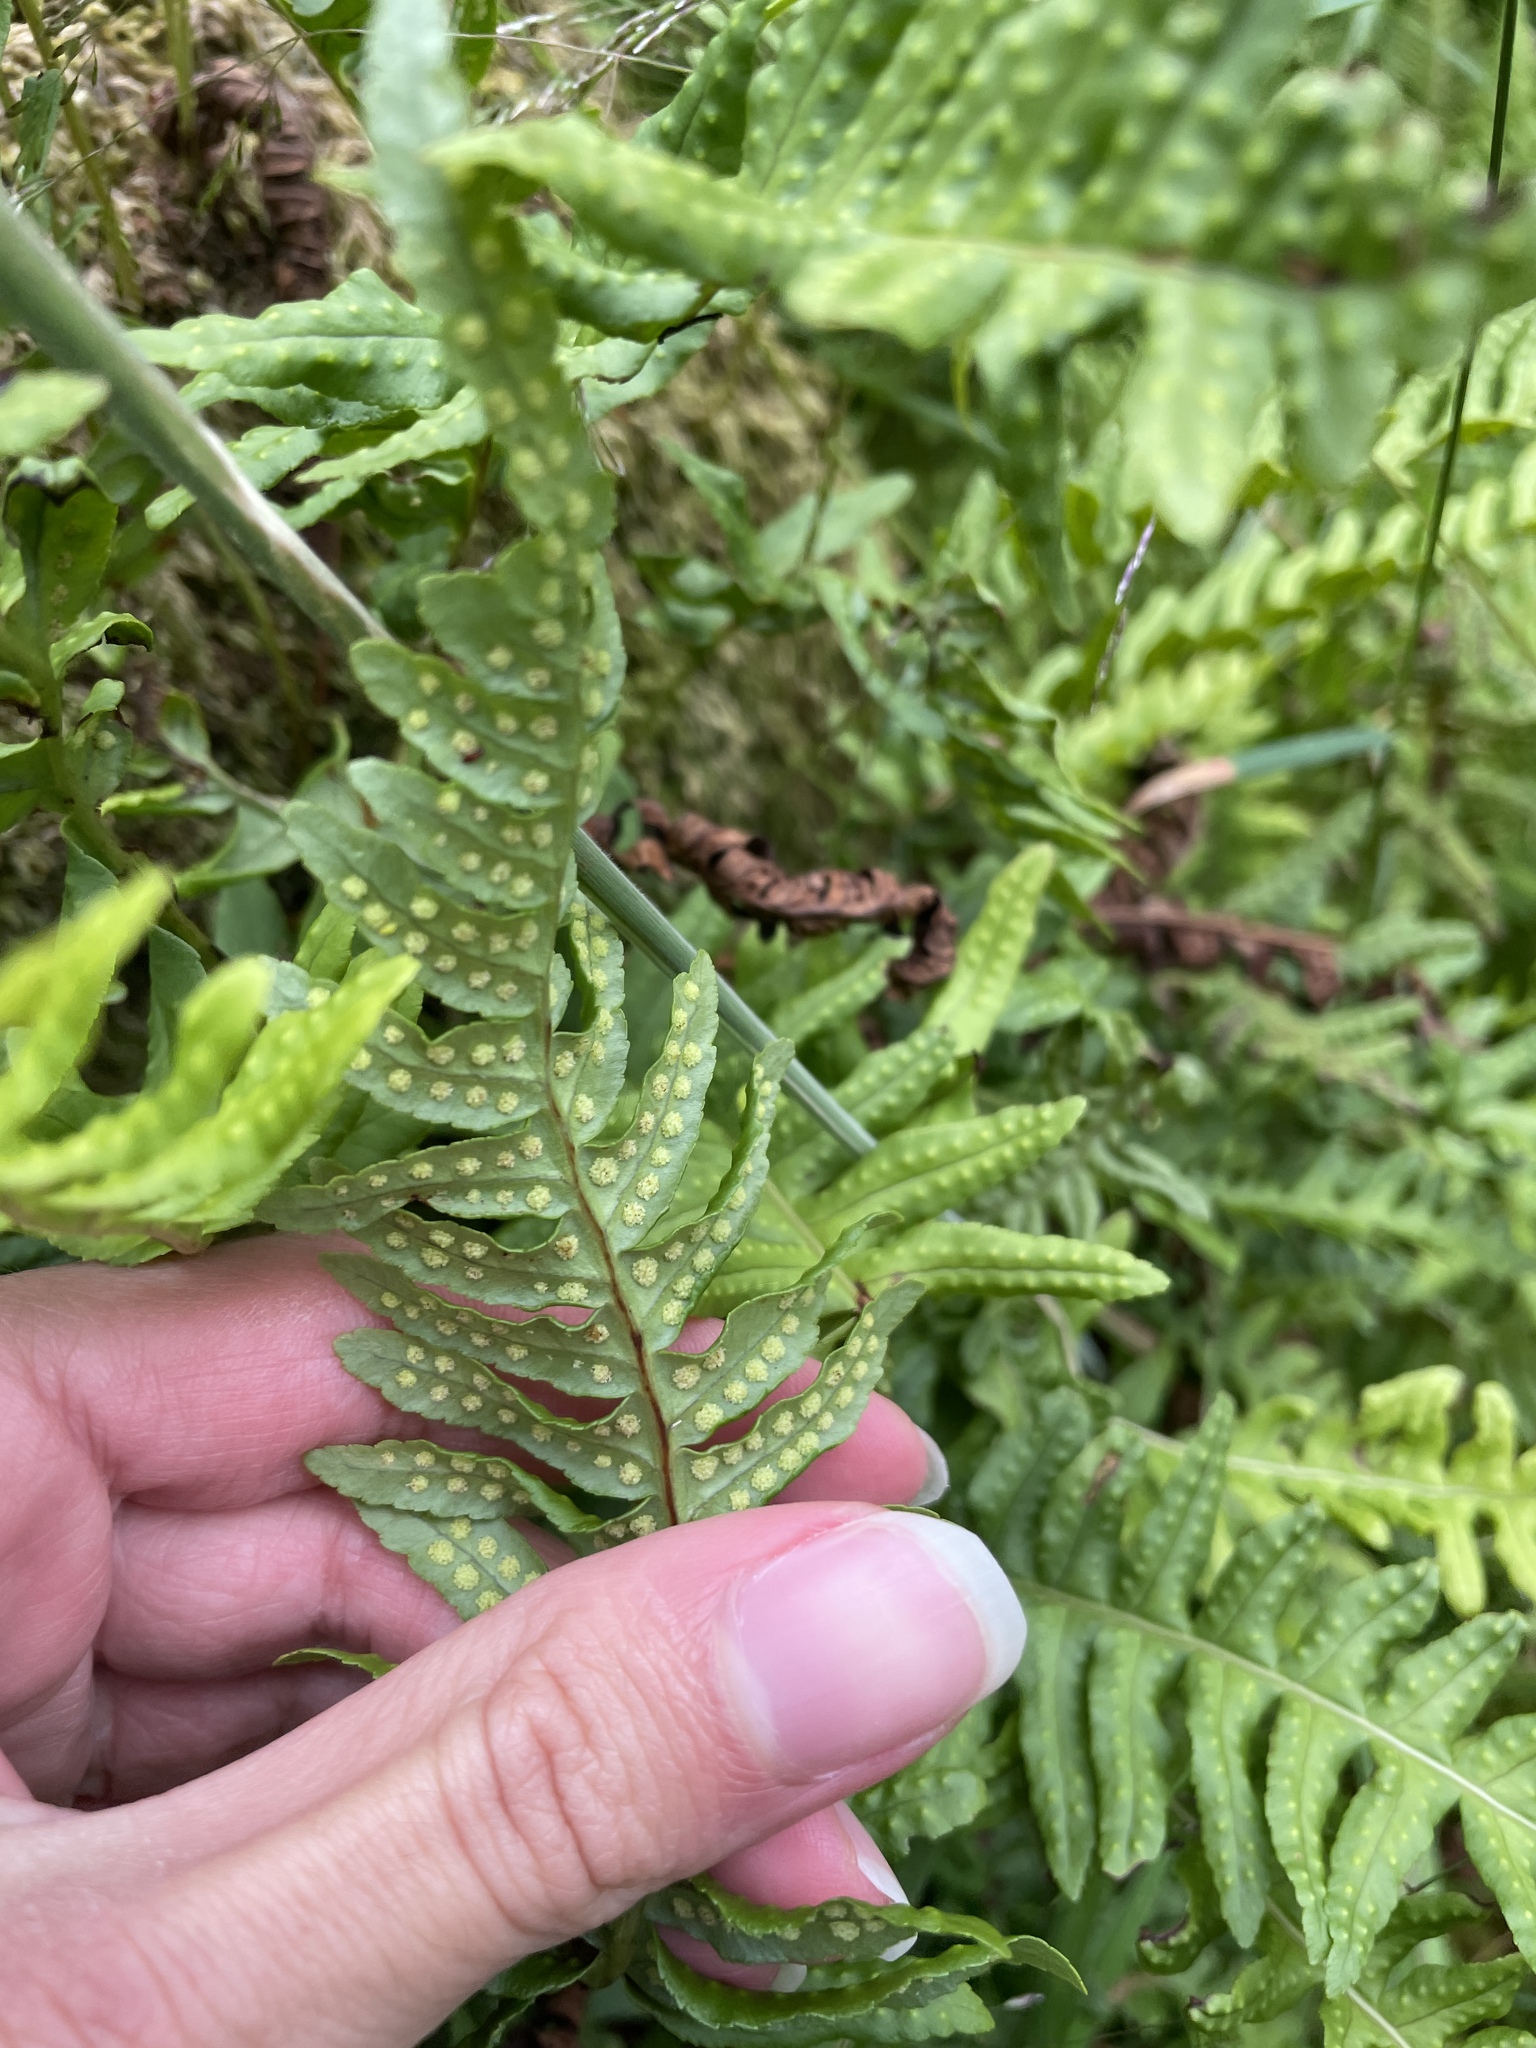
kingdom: Plantae
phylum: Tracheophyta
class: Polypodiopsida
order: Polypodiales
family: Polypodiaceae
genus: Polypodium
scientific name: Polypodium vulgare
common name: Common polypody
